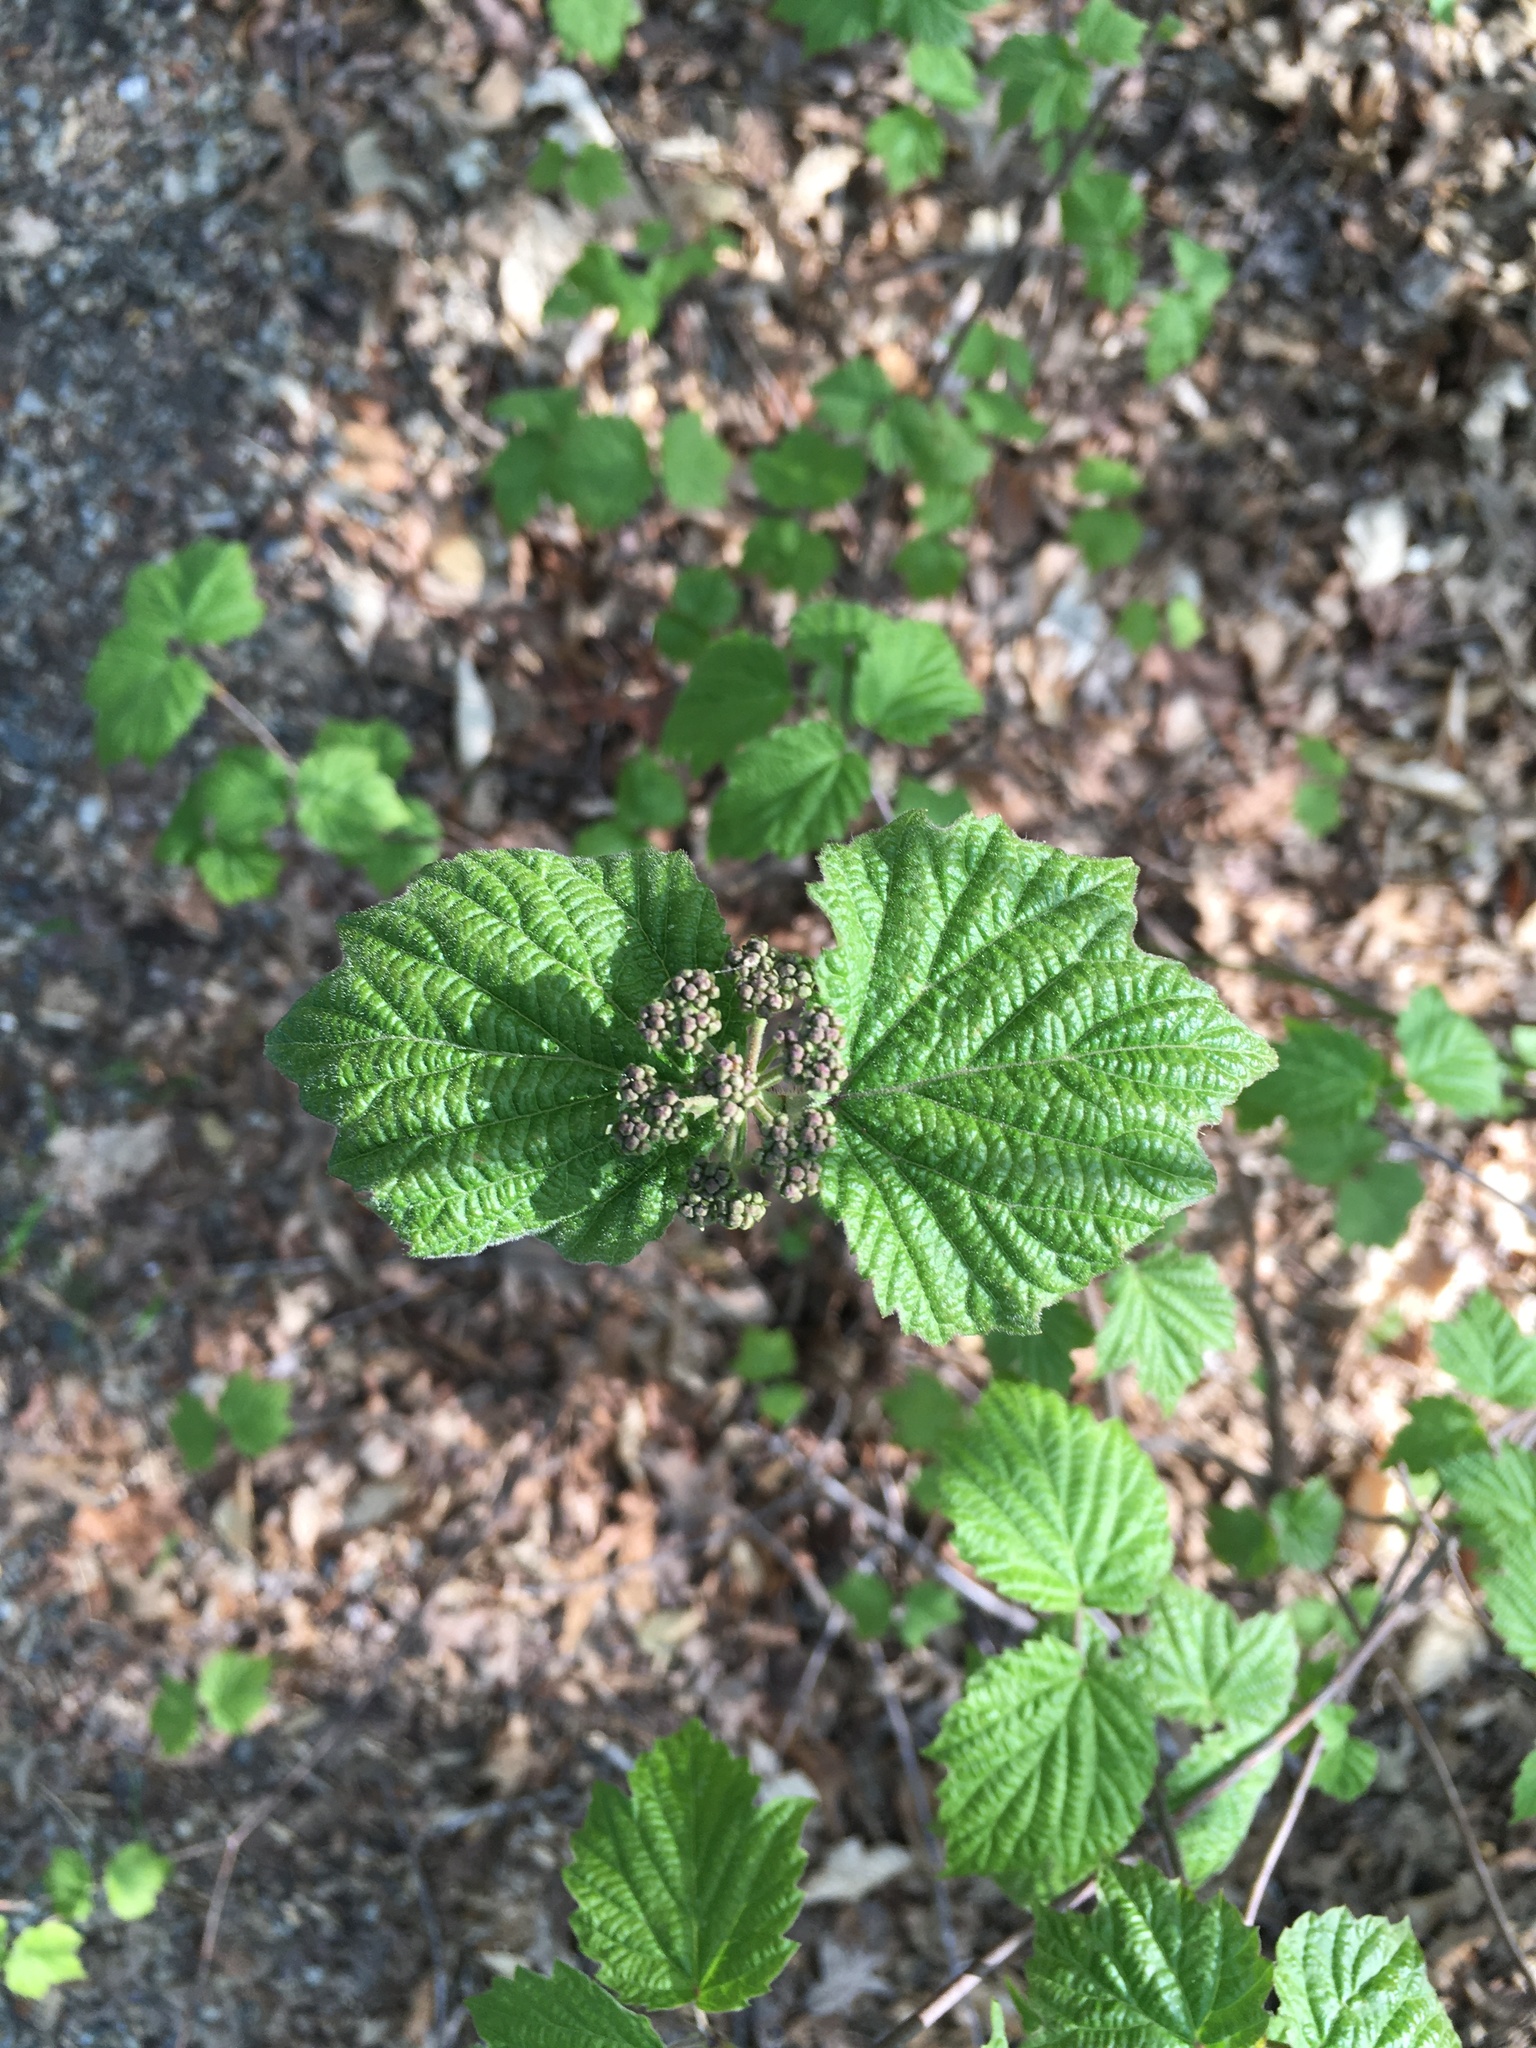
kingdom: Plantae
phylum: Tracheophyta
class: Magnoliopsida
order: Dipsacales
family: Viburnaceae
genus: Viburnum
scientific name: Viburnum acerifolium
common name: Dockmackie
